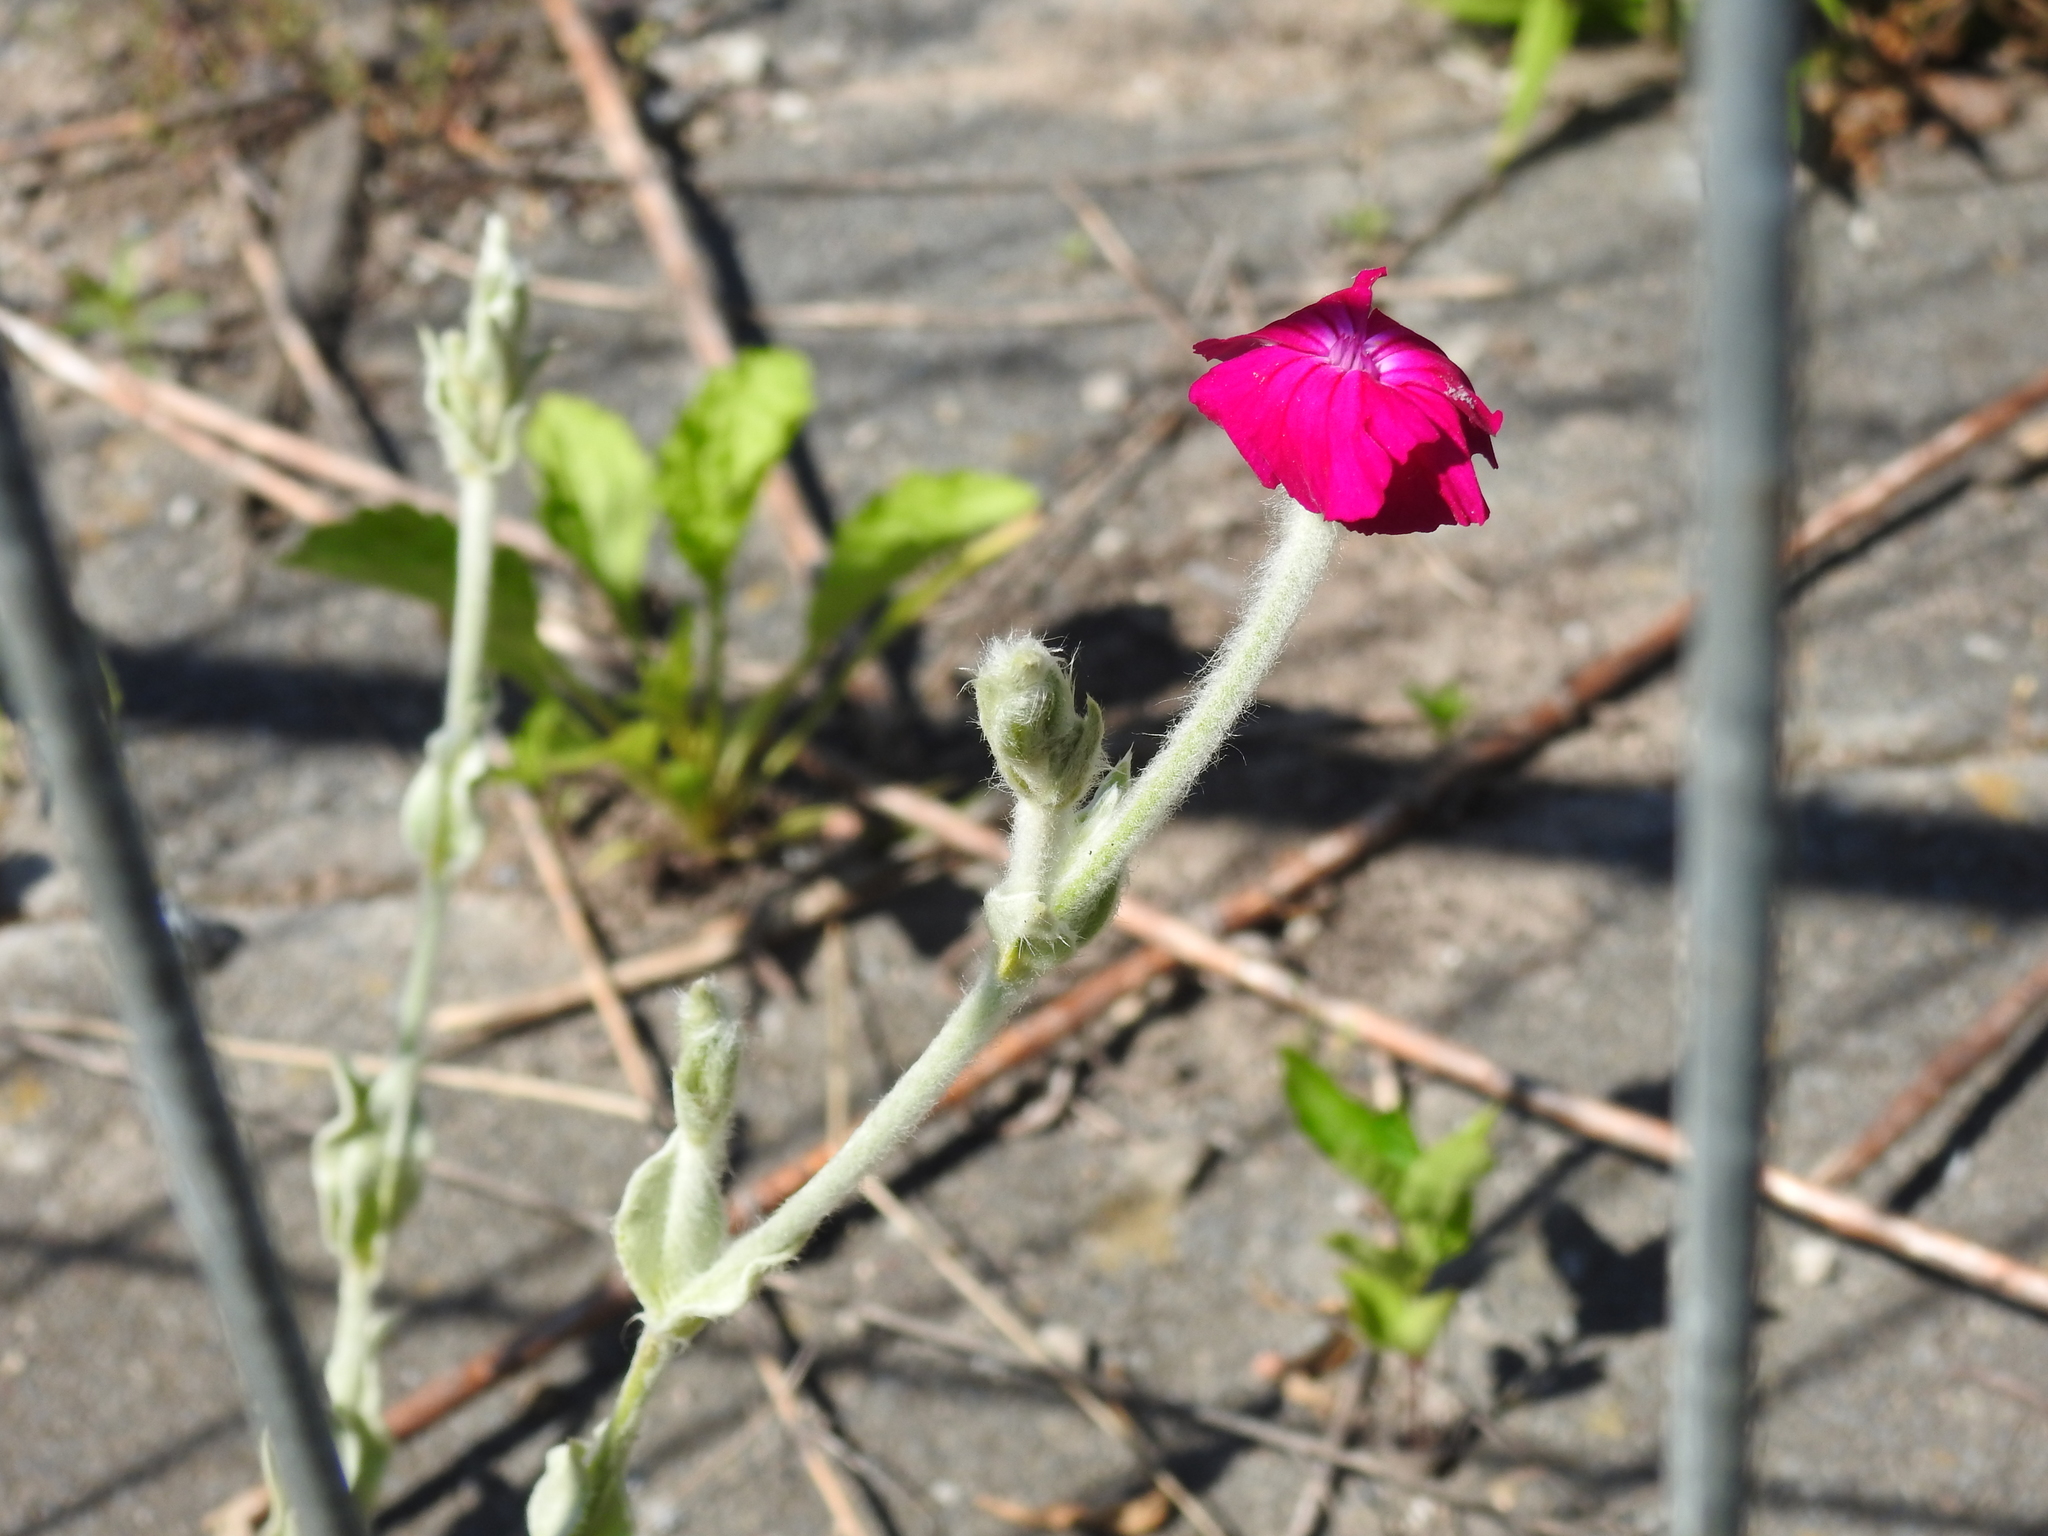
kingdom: Plantae
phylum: Tracheophyta
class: Magnoliopsida
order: Caryophyllales
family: Caryophyllaceae
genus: Silene
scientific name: Silene coronaria
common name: Rose campion
